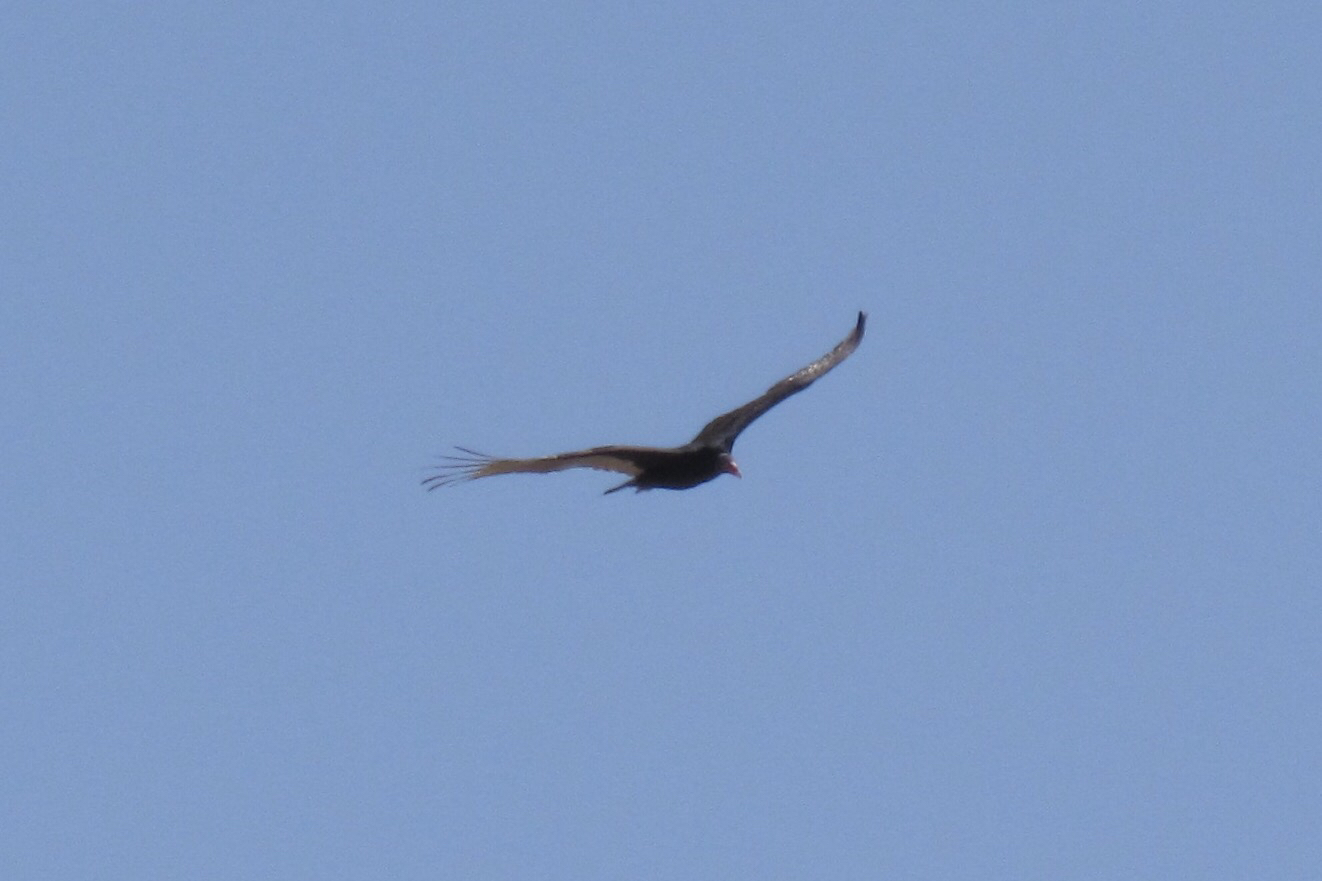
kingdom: Animalia
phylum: Chordata
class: Aves
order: Accipitriformes
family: Cathartidae
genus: Cathartes
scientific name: Cathartes aura
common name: Turkey vulture
